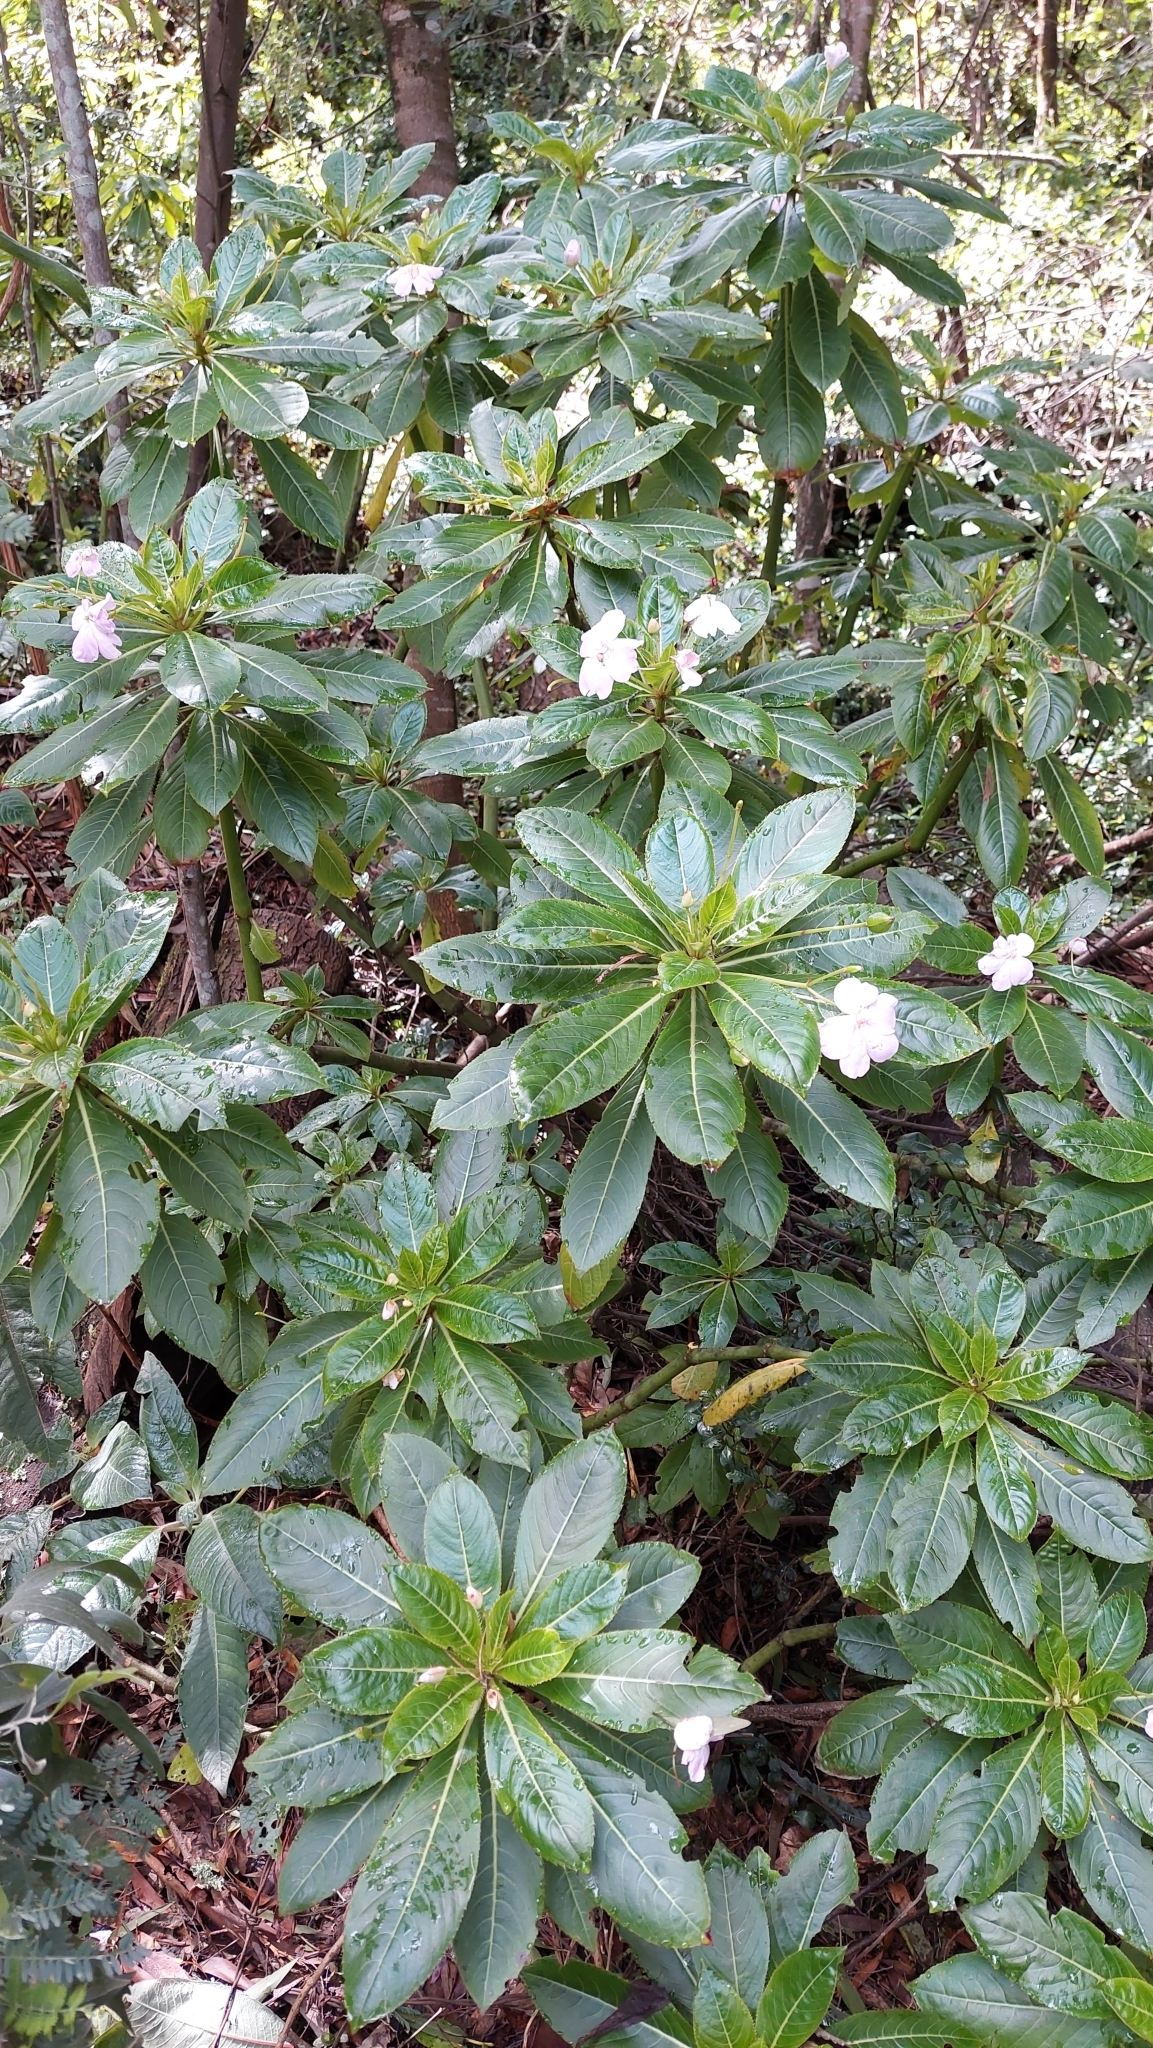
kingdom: Plantae
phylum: Tracheophyta
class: Magnoliopsida
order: Ericales
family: Balsaminaceae
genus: Impatiens
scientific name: Impatiens sodenii
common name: Oliver's touch-me-not
